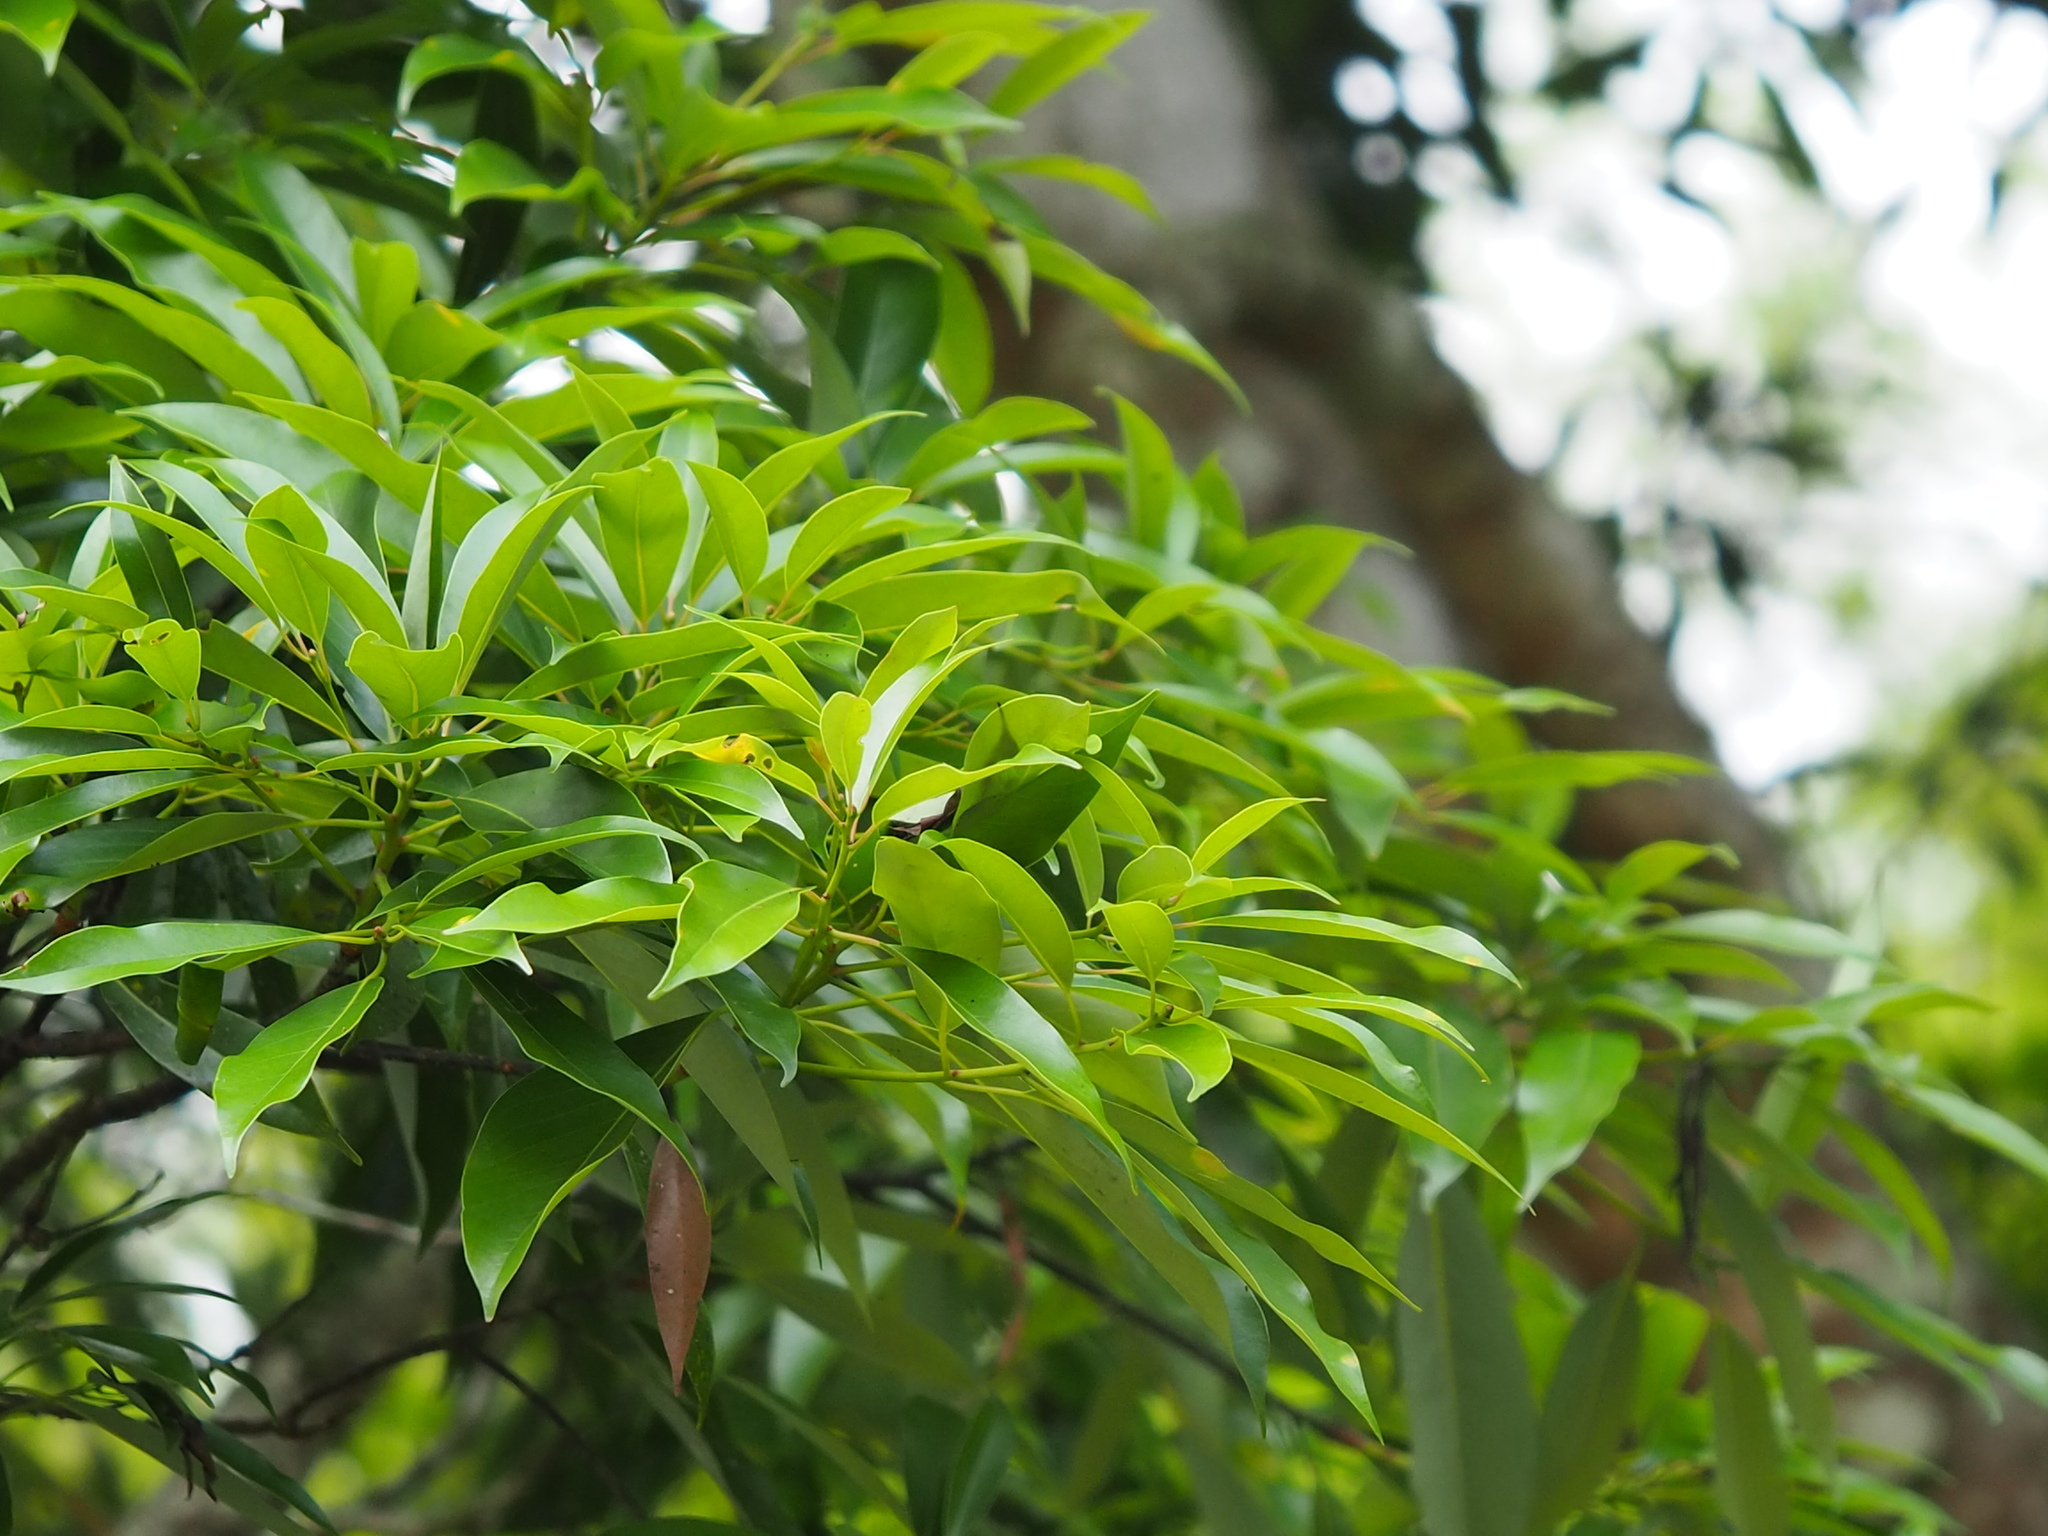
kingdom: Plantae
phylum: Tracheophyta
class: Magnoliopsida
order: Laurales
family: Lauraceae
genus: Machilus
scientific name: Machilus thunbergii
